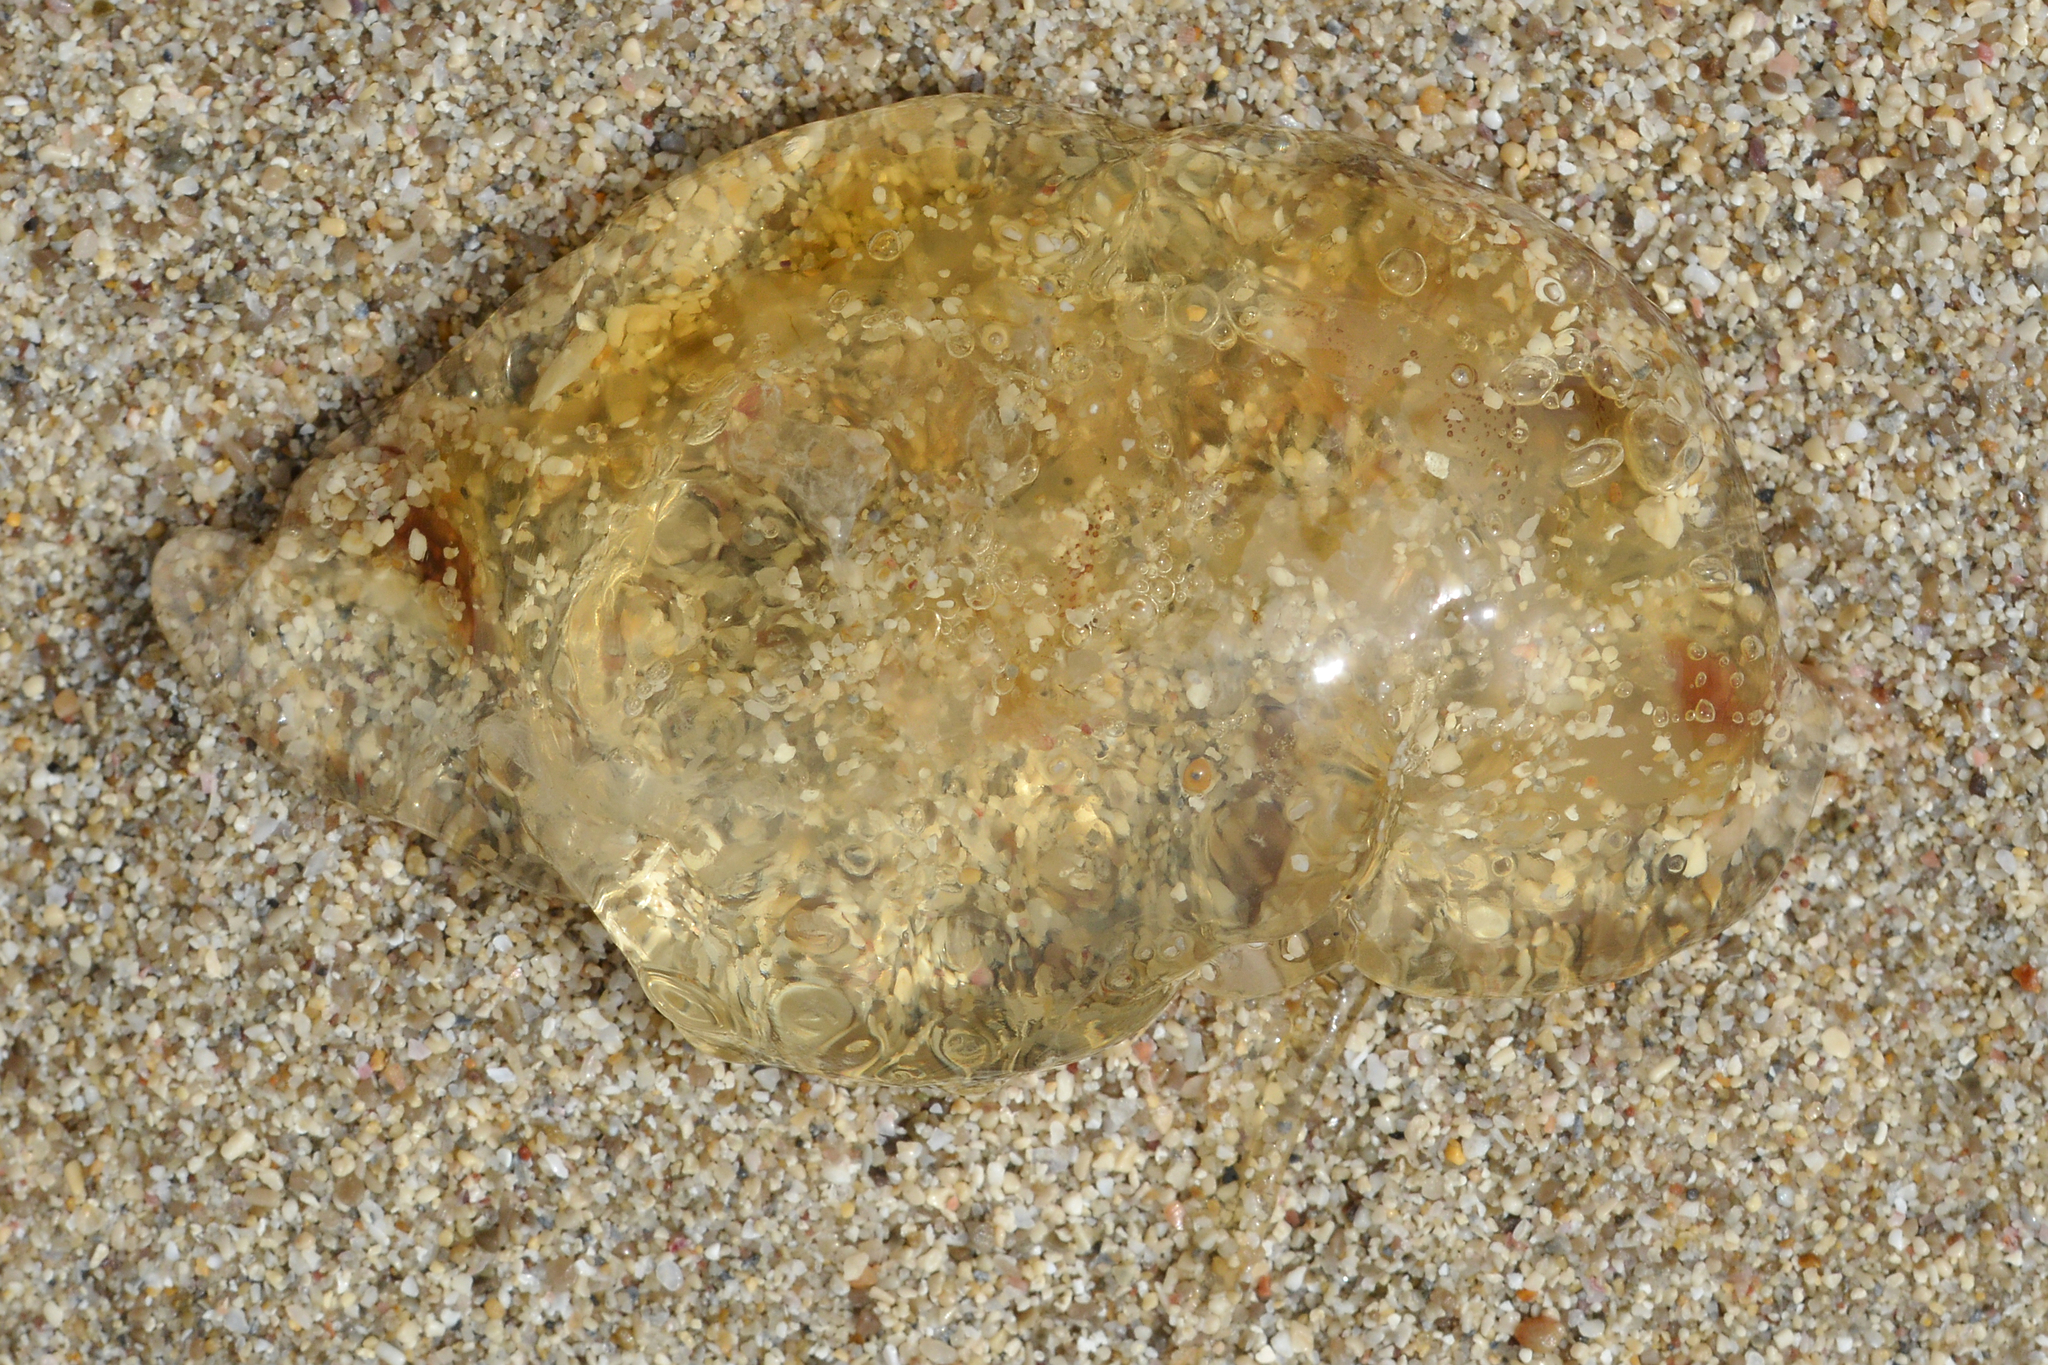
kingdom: Animalia
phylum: Cnidaria
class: Scyphozoa
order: Rhizostomeae
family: Cepheidae
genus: Cotylorhiza
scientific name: Cotylorhiza tuberculata
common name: Mediterranean jelly
